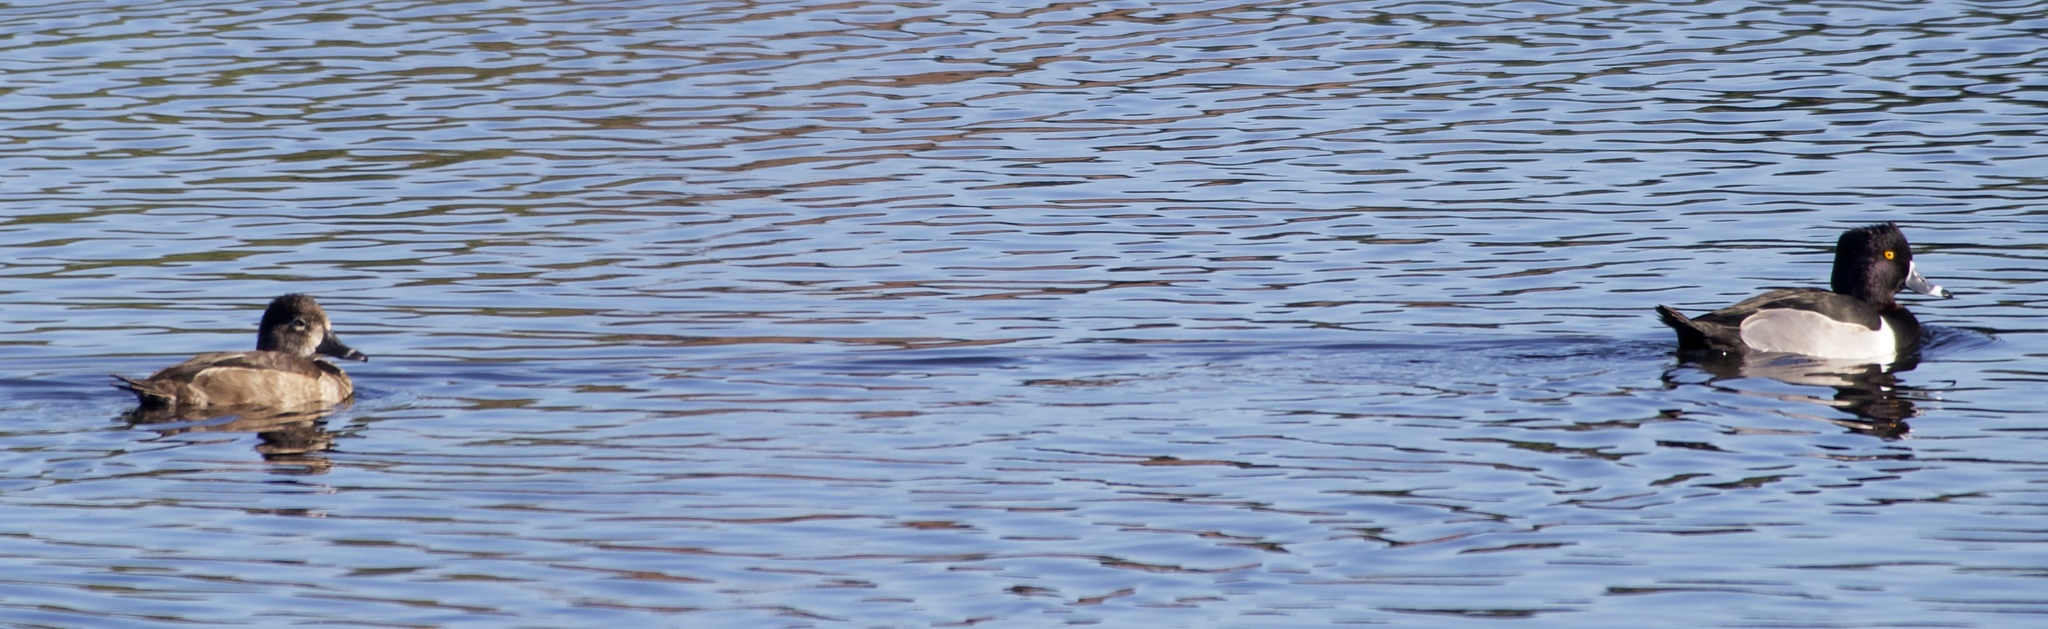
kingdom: Animalia
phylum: Chordata
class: Aves
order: Anseriformes
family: Anatidae
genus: Aythya
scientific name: Aythya collaris
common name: Ring-necked duck
